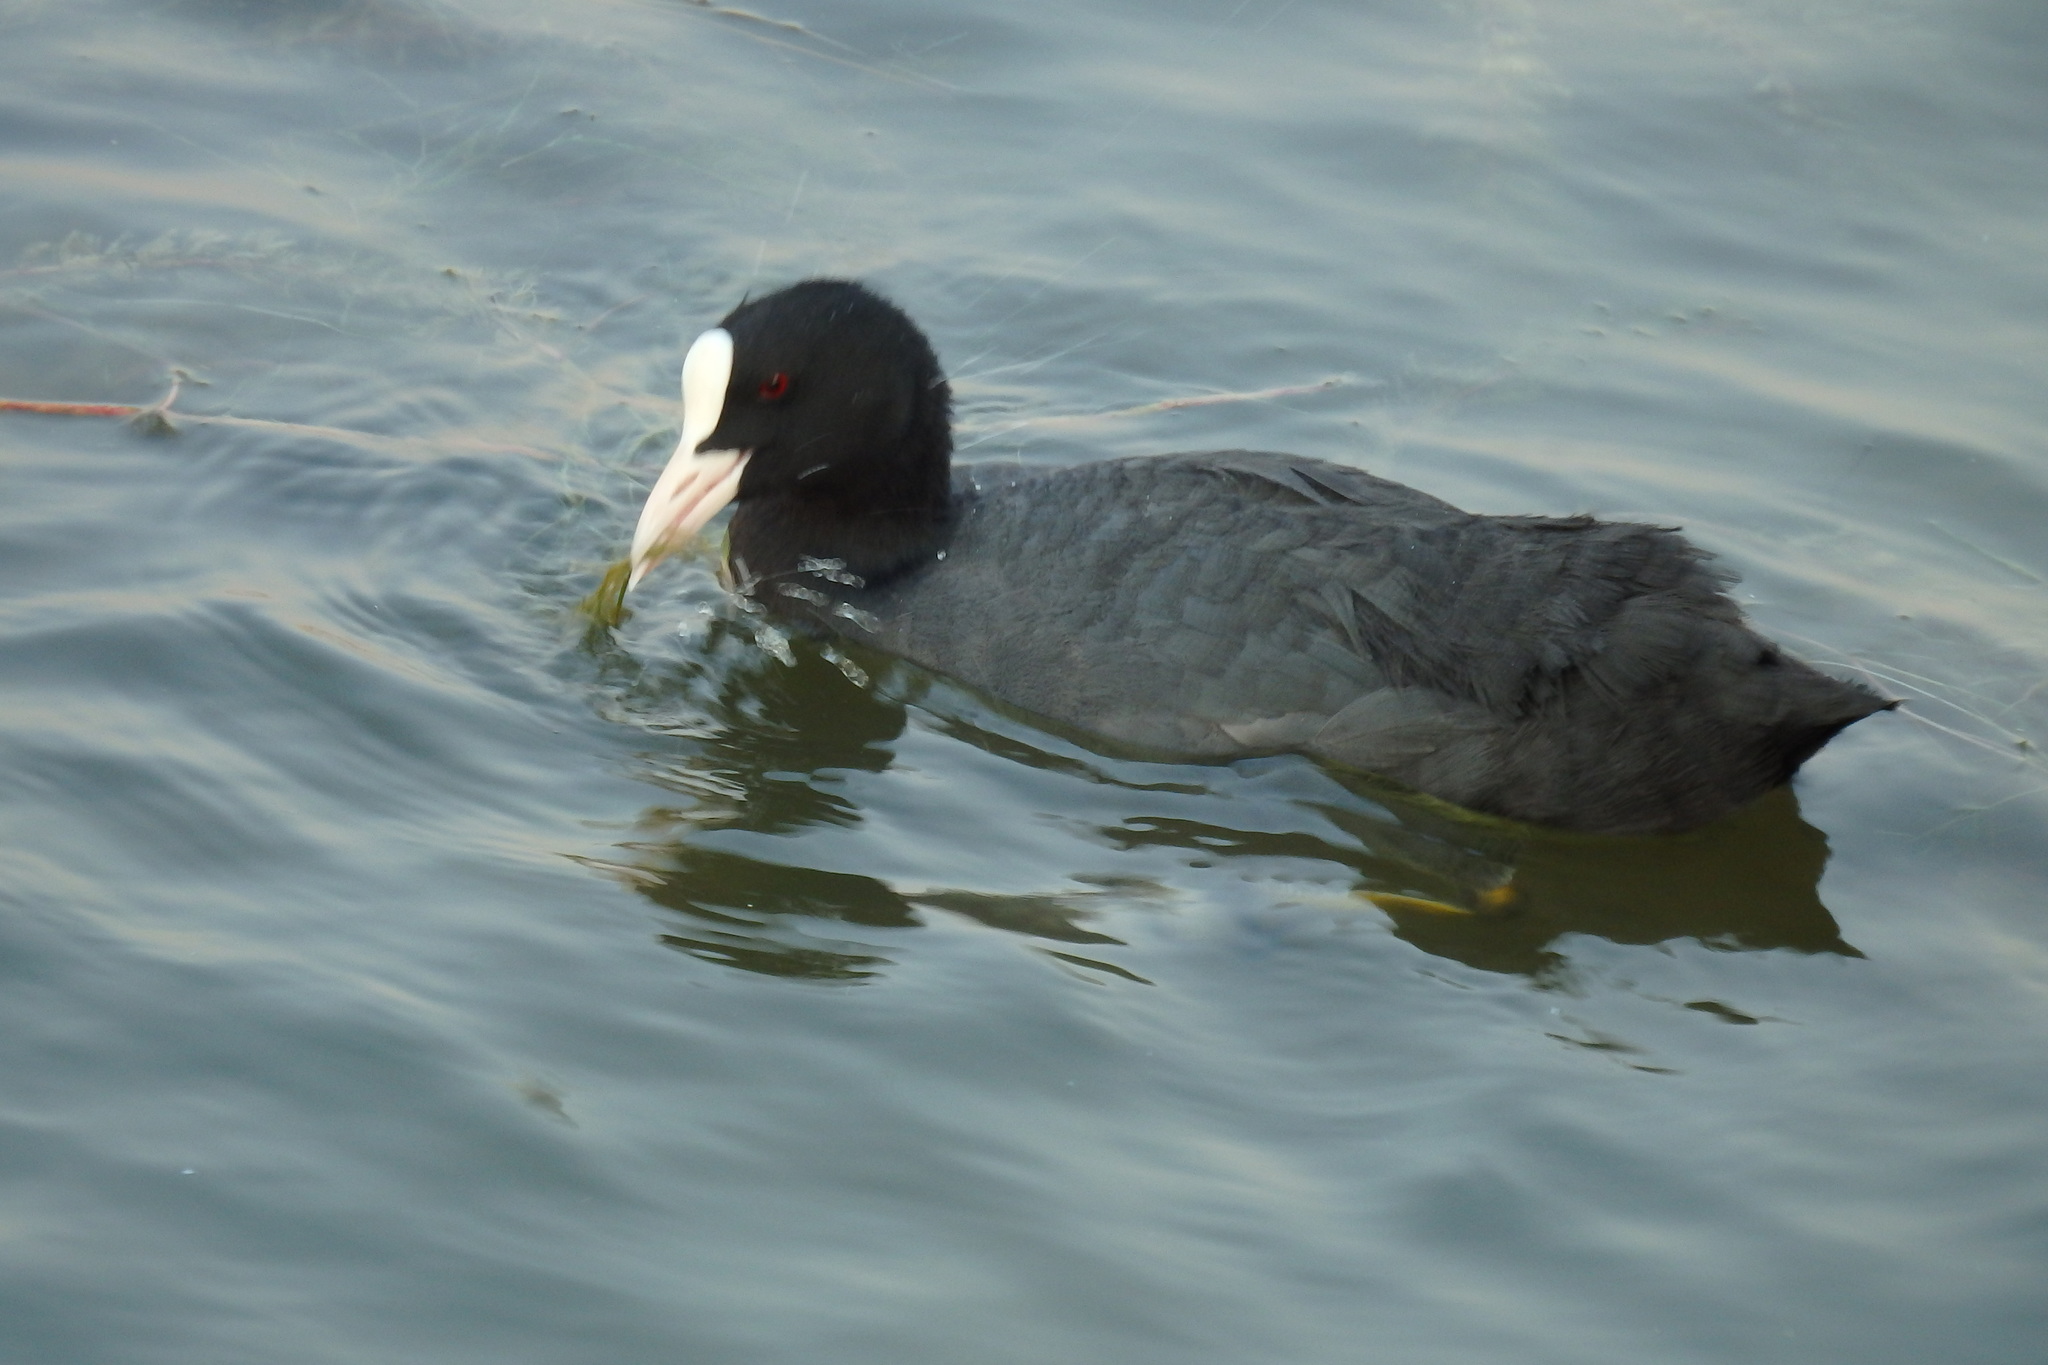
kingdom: Animalia
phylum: Chordata
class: Aves
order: Gruiformes
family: Rallidae
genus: Fulica
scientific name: Fulica atra
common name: Eurasian coot
